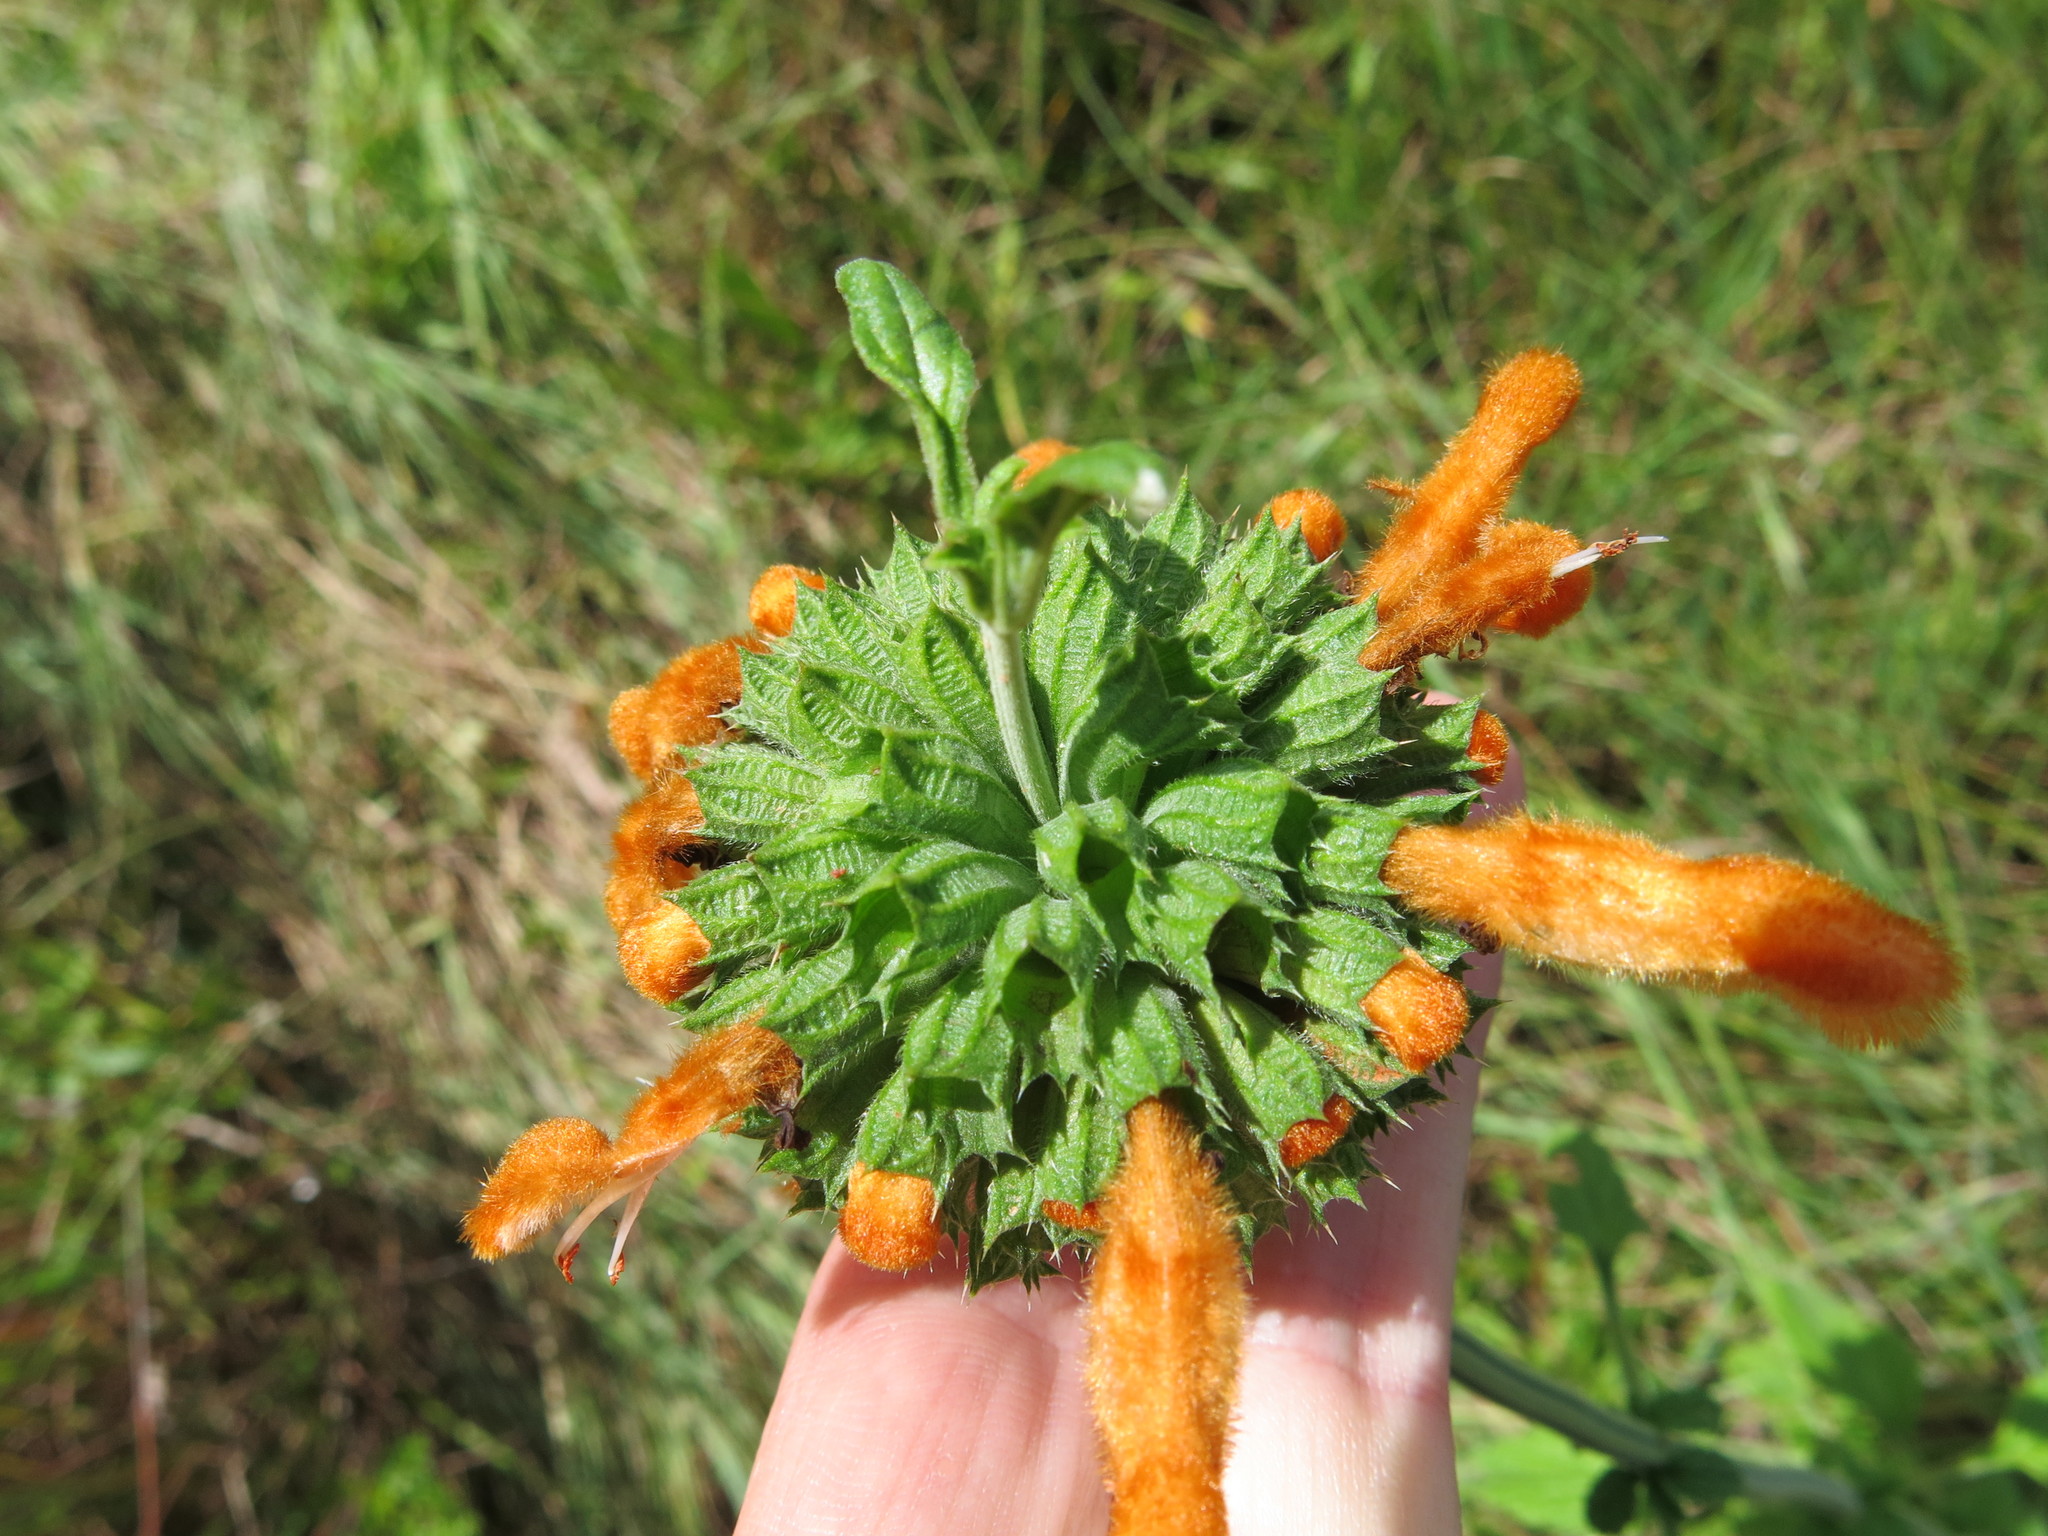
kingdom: Plantae
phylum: Tracheophyta
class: Magnoliopsida
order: Lamiales
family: Lamiaceae
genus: Leonotis
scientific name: Leonotis ocymifolia
